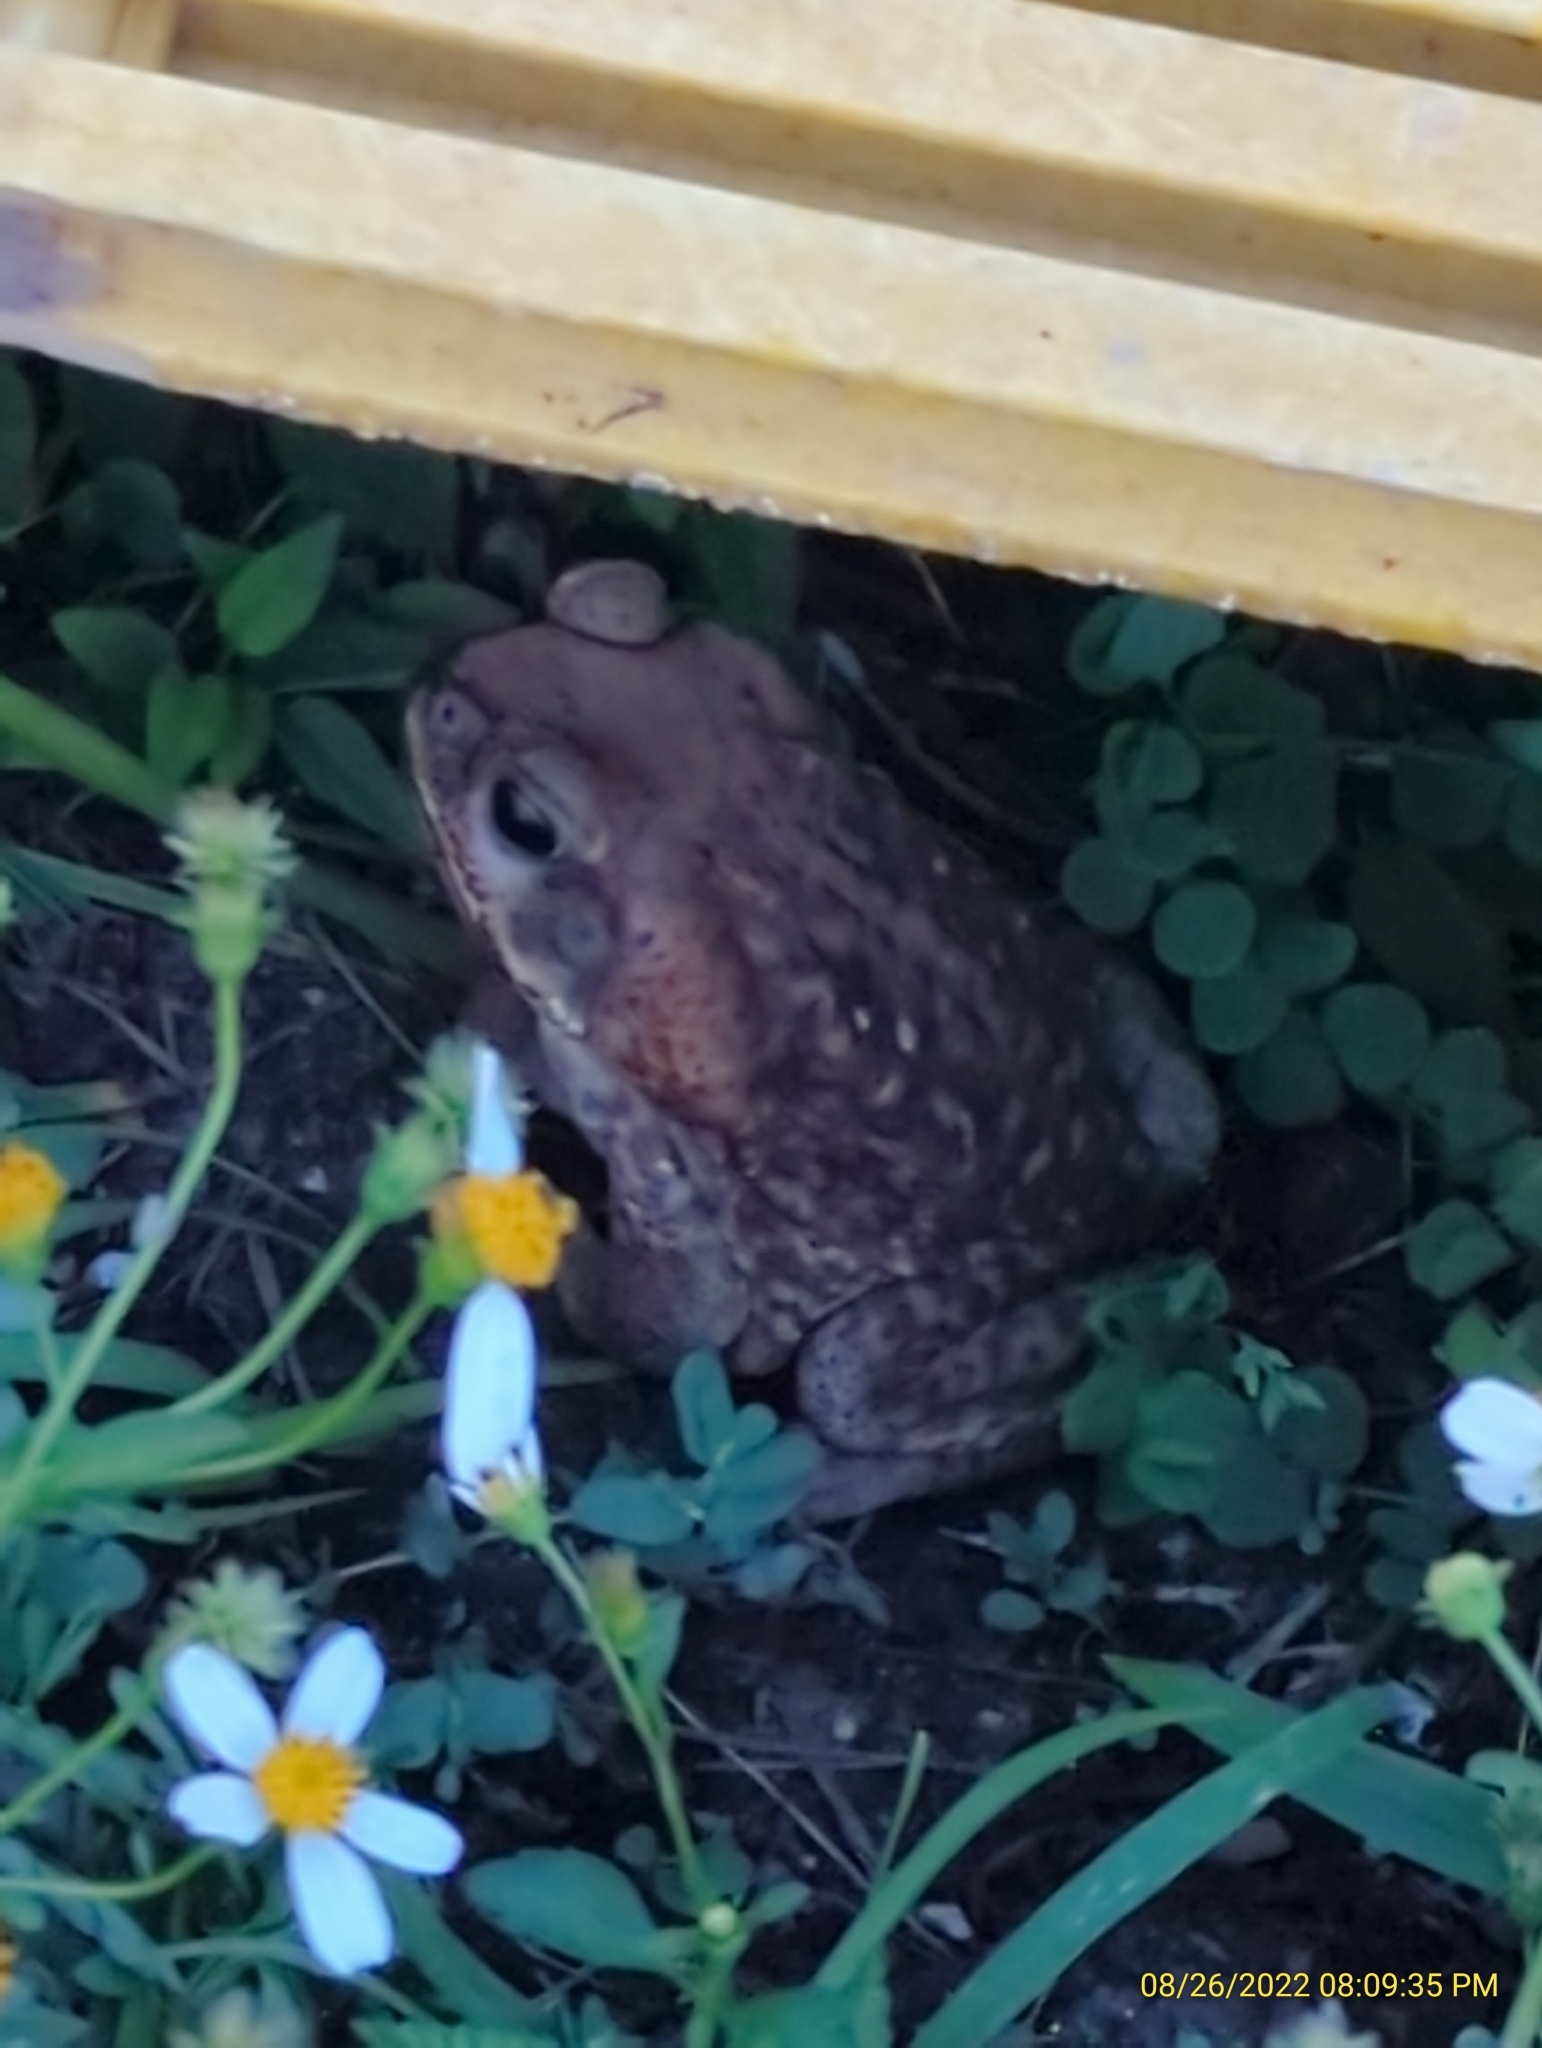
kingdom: Animalia
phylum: Chordata
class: Amphibia
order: Anura
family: Bufonidae
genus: Rhinella
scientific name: Rhinella marina
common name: Cane toad
